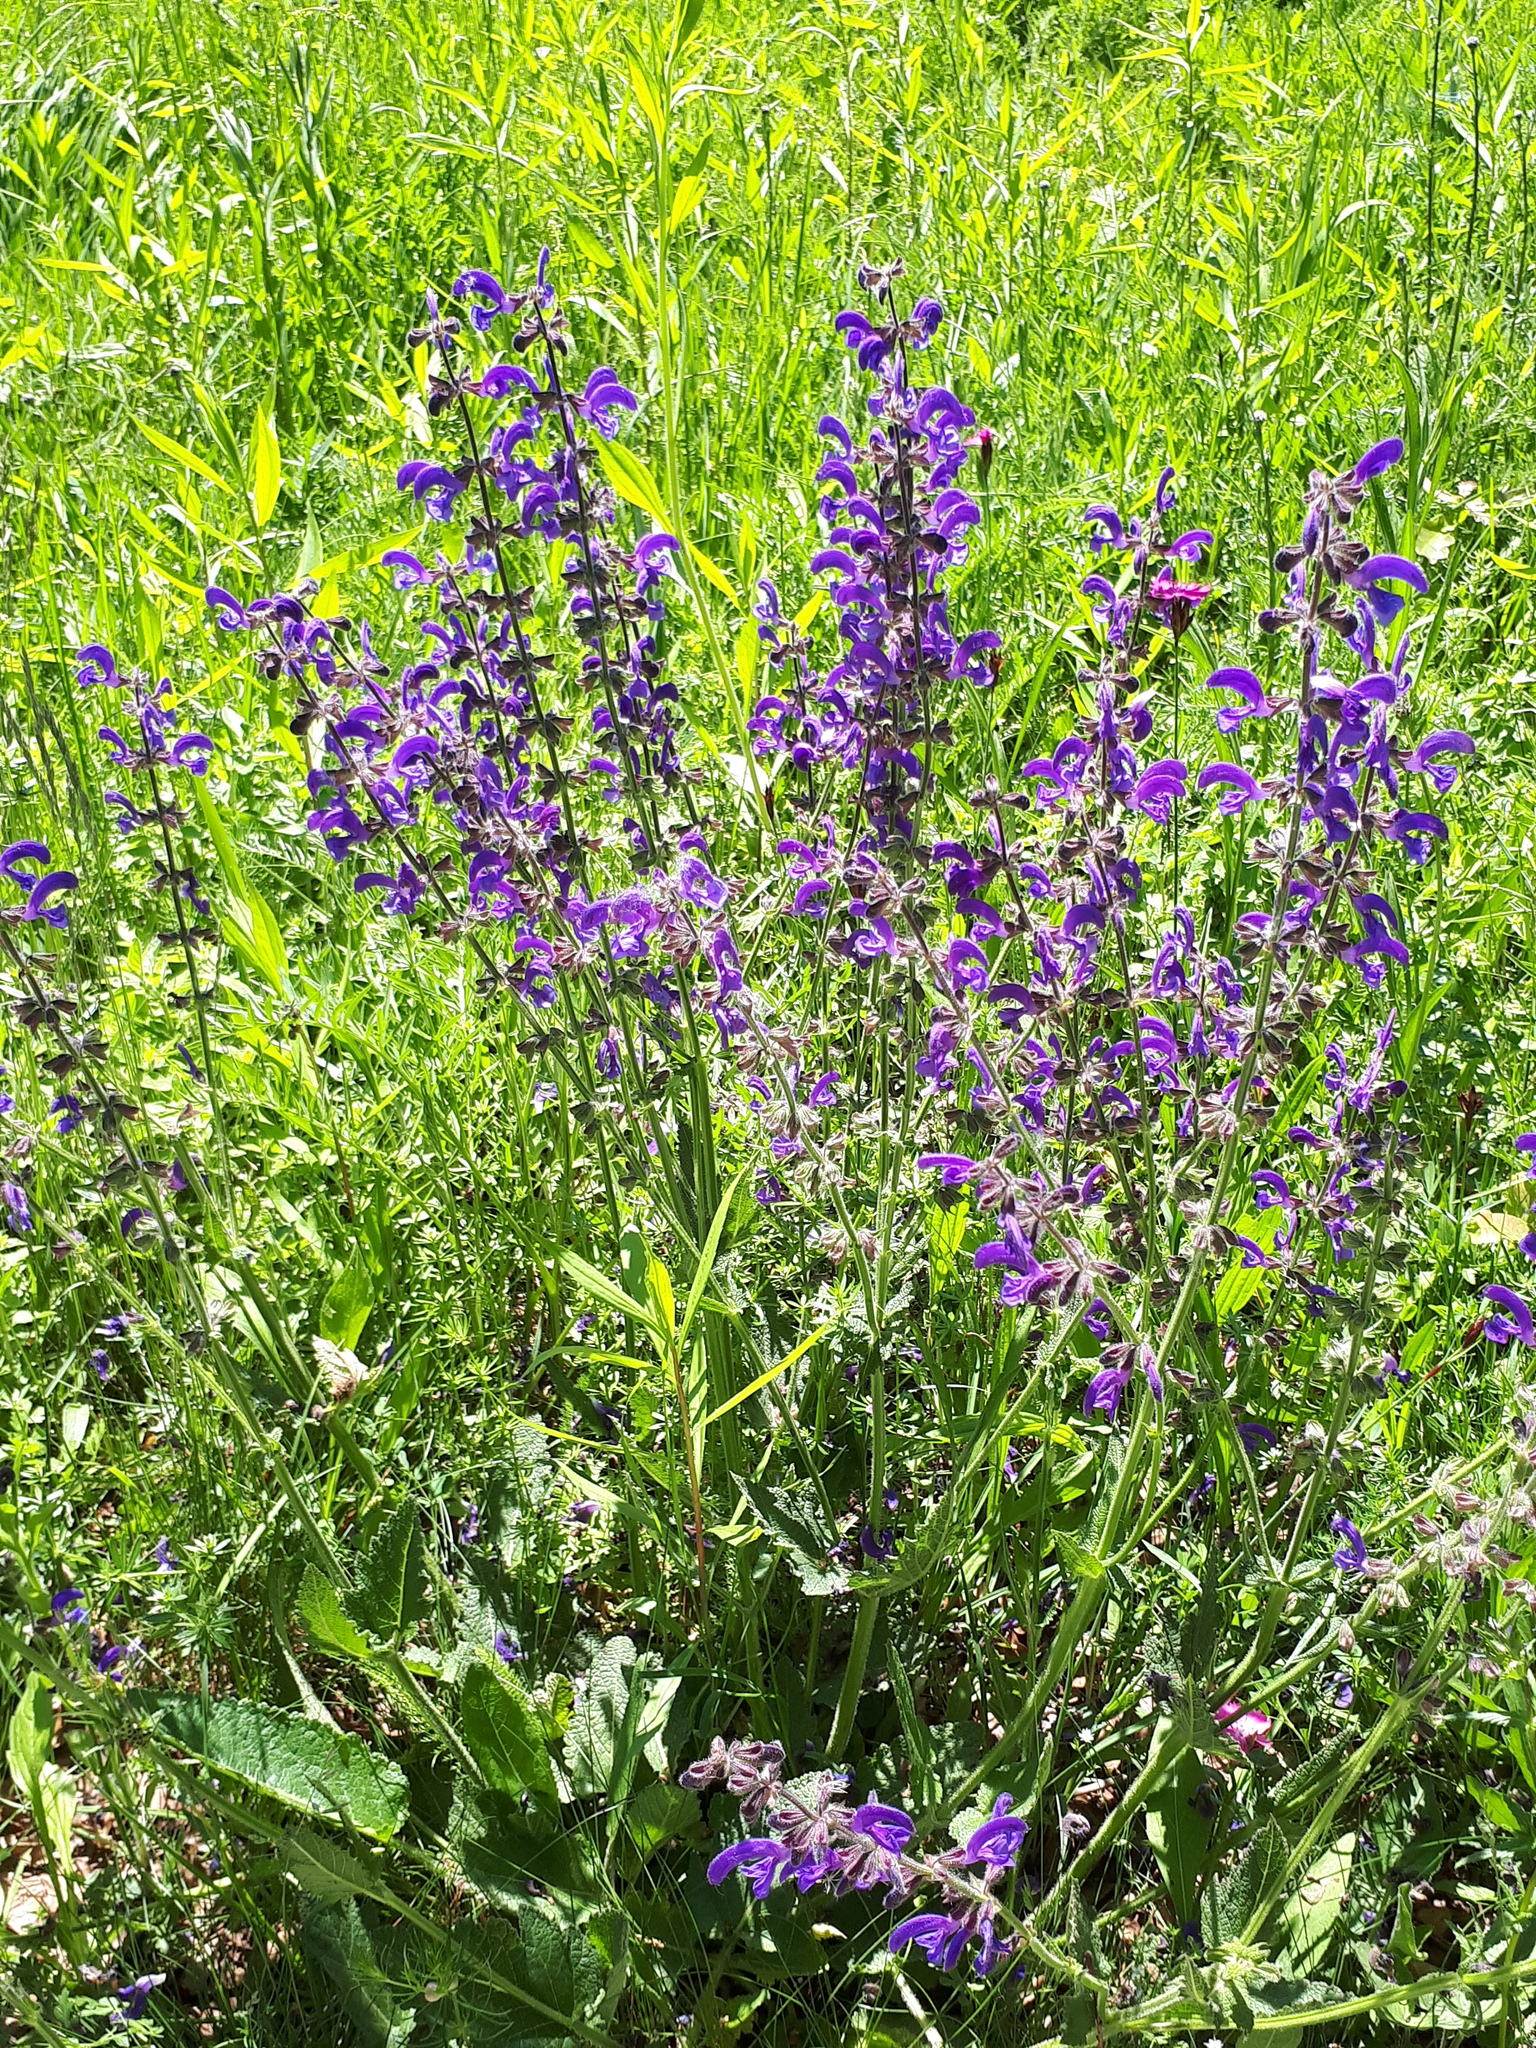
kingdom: Plantae
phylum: Tracheophyta
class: Magnoliopsida
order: Lamiales
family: Lamiaceae
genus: Salvia
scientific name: Salvia pratensis
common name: Meadow sage
